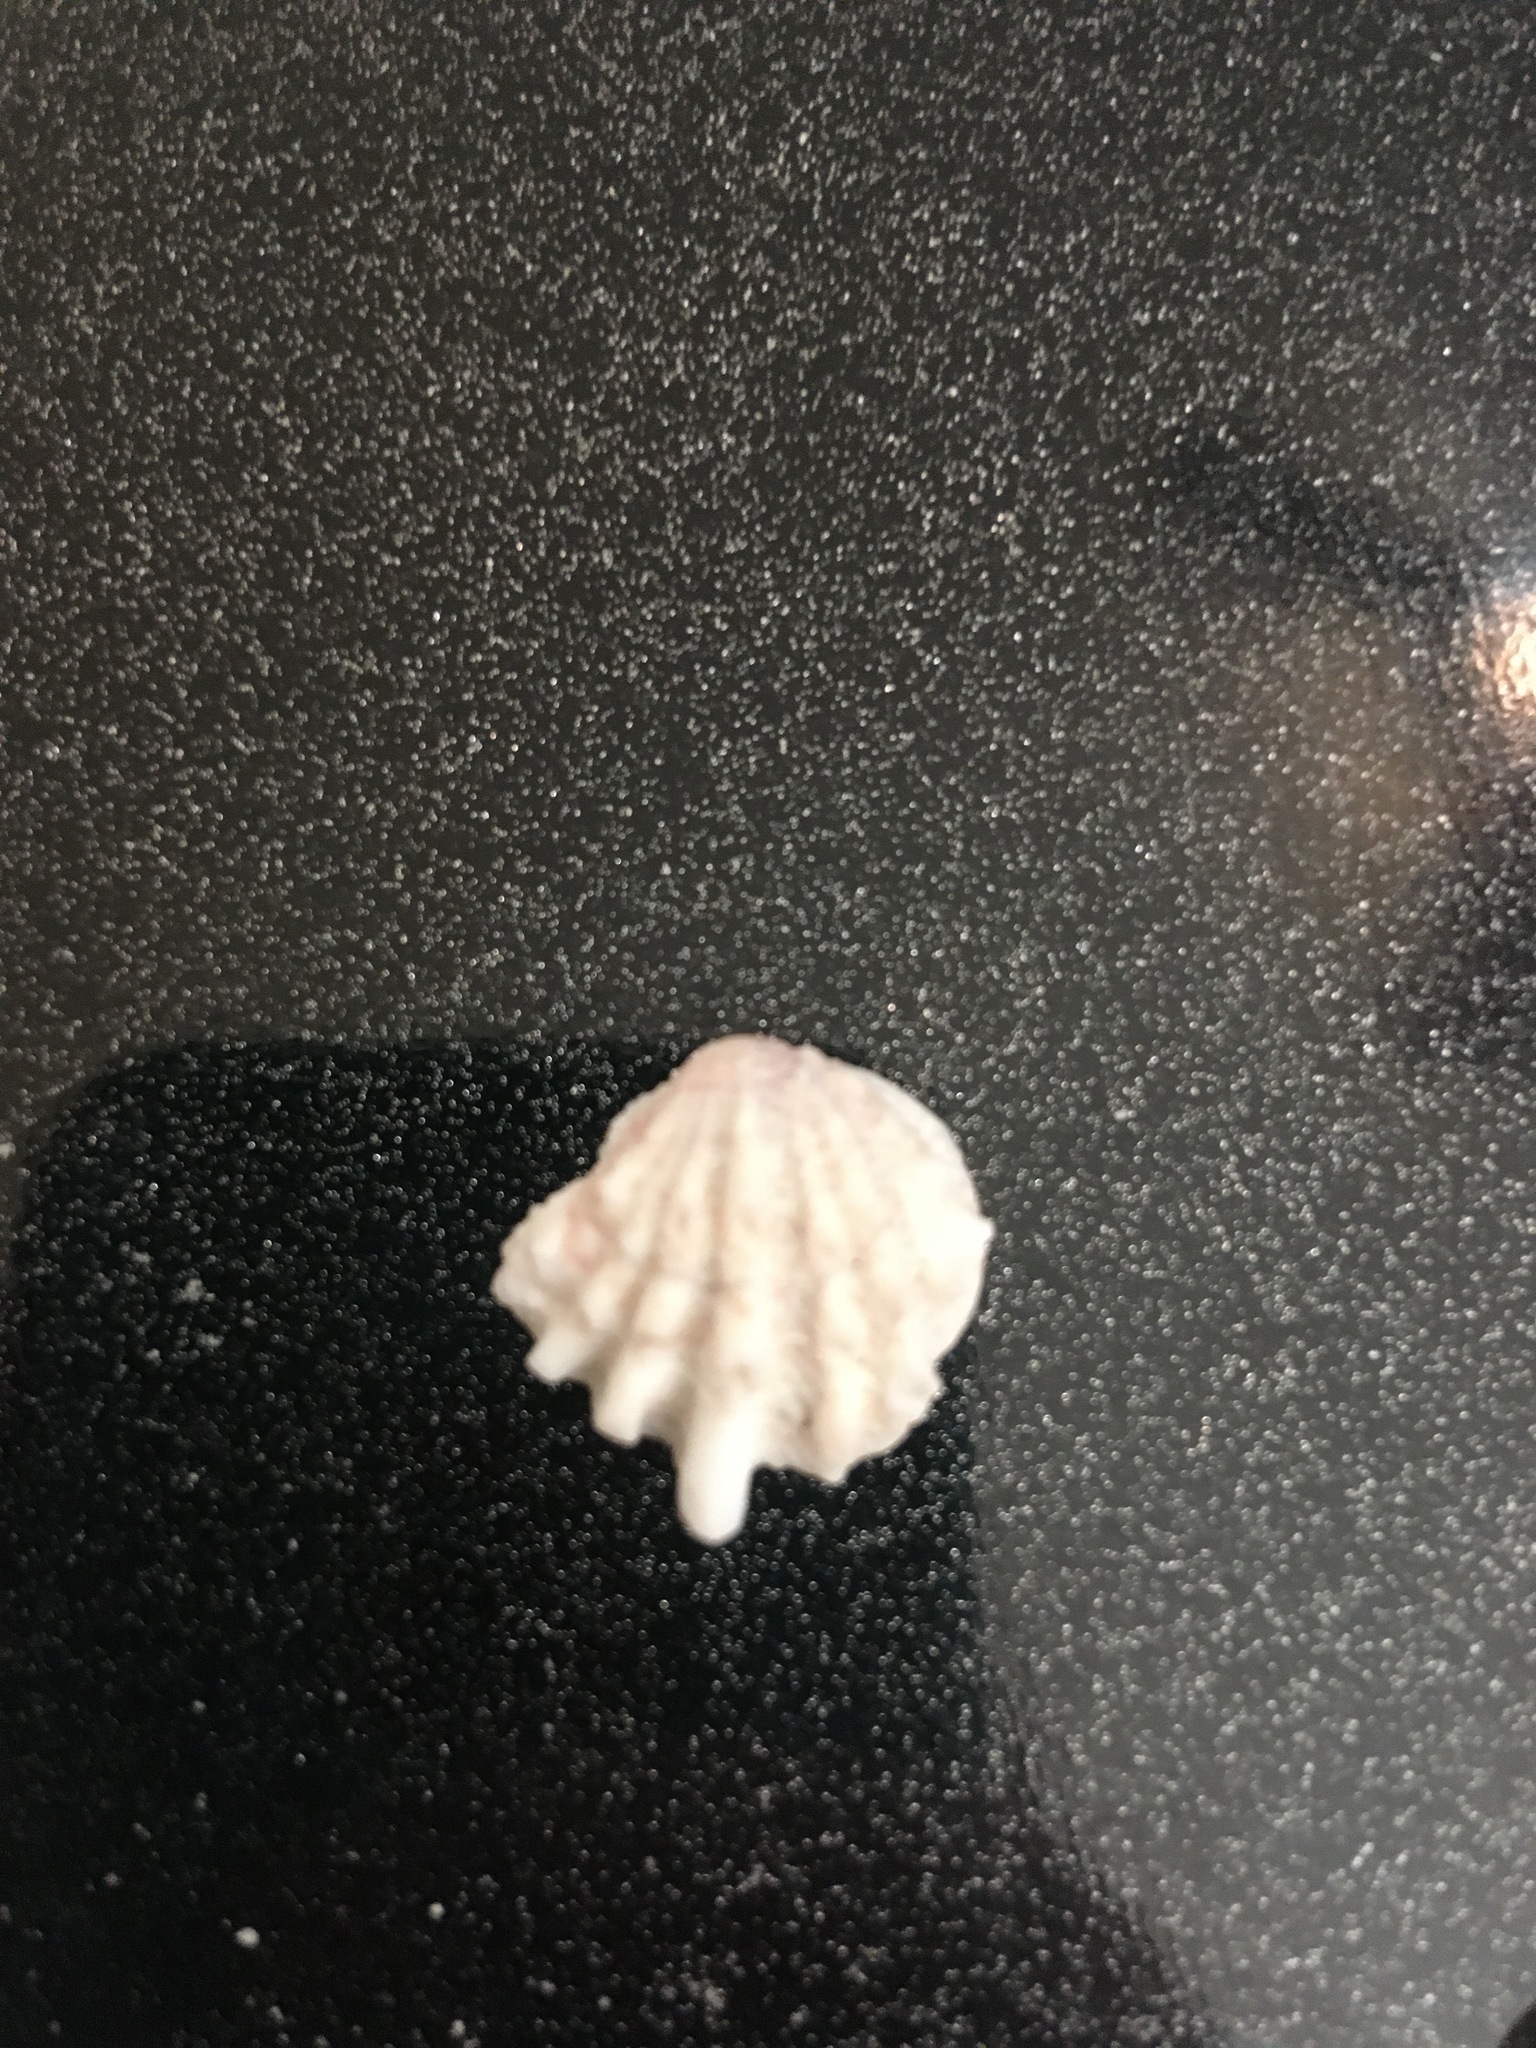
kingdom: Animalia
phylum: Mollusca
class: Bivalvia
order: Pectinida
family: Plicatulidae
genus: Plicatula
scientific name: Plicatula gibbosa
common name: Atlantic kitten's paw
